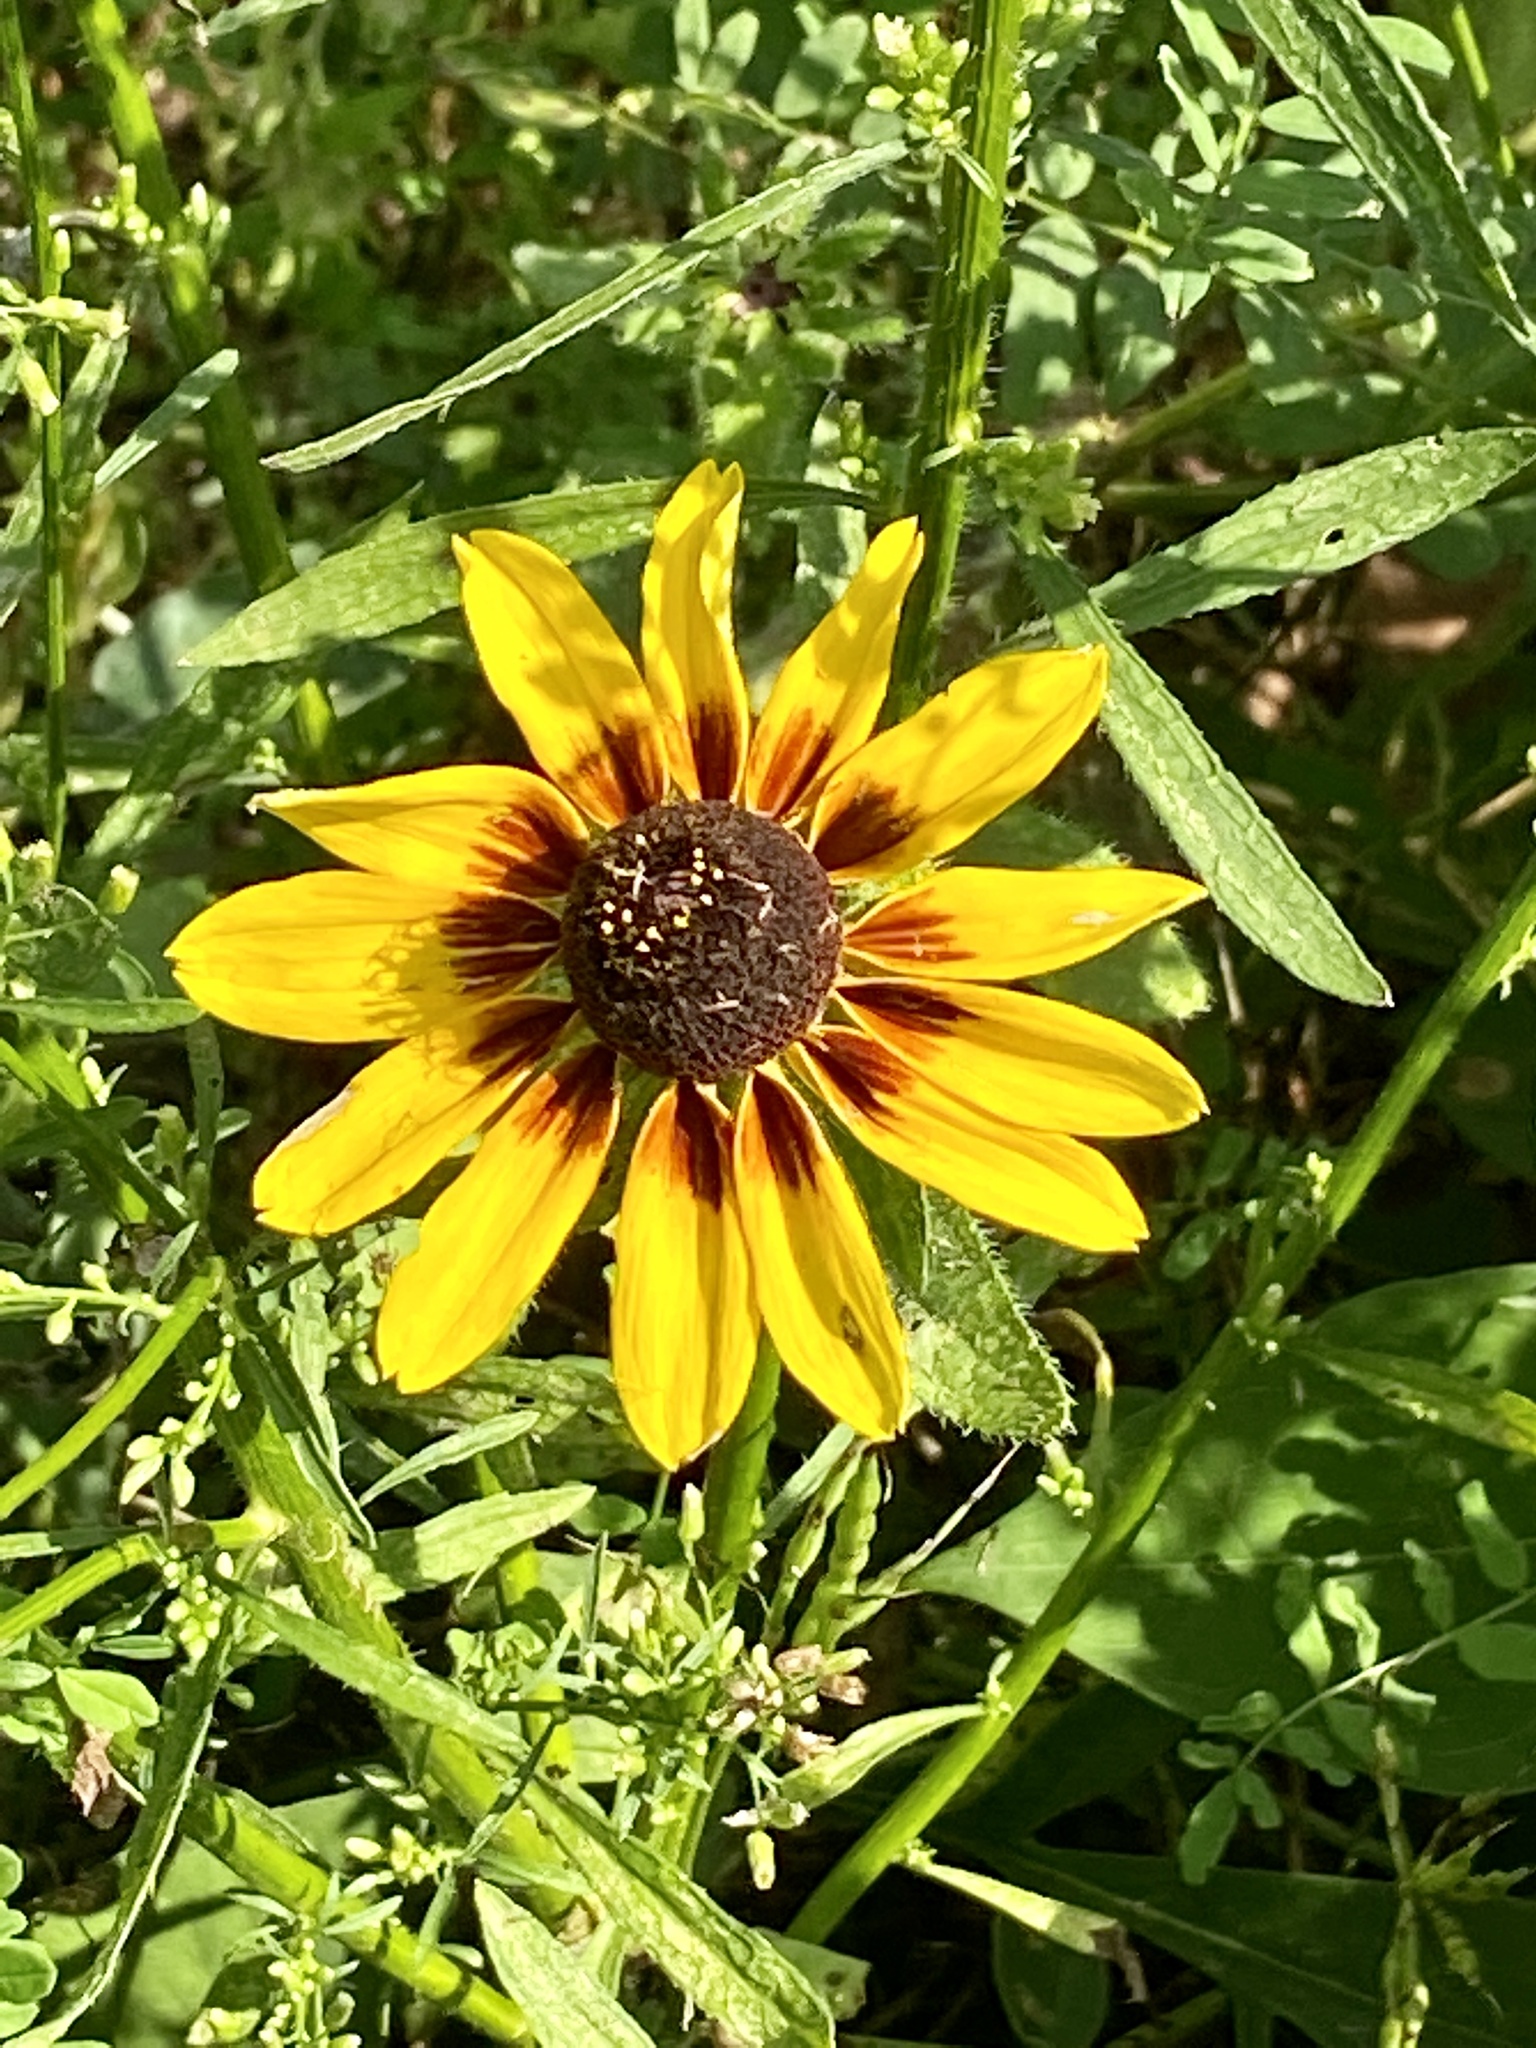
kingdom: Plantae
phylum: Tracheophyta
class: Magnoliopsida
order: Asterales
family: Asteraceae
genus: Rudbeckia
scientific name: Rudbeckia hirta
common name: Black-eyed-susan
